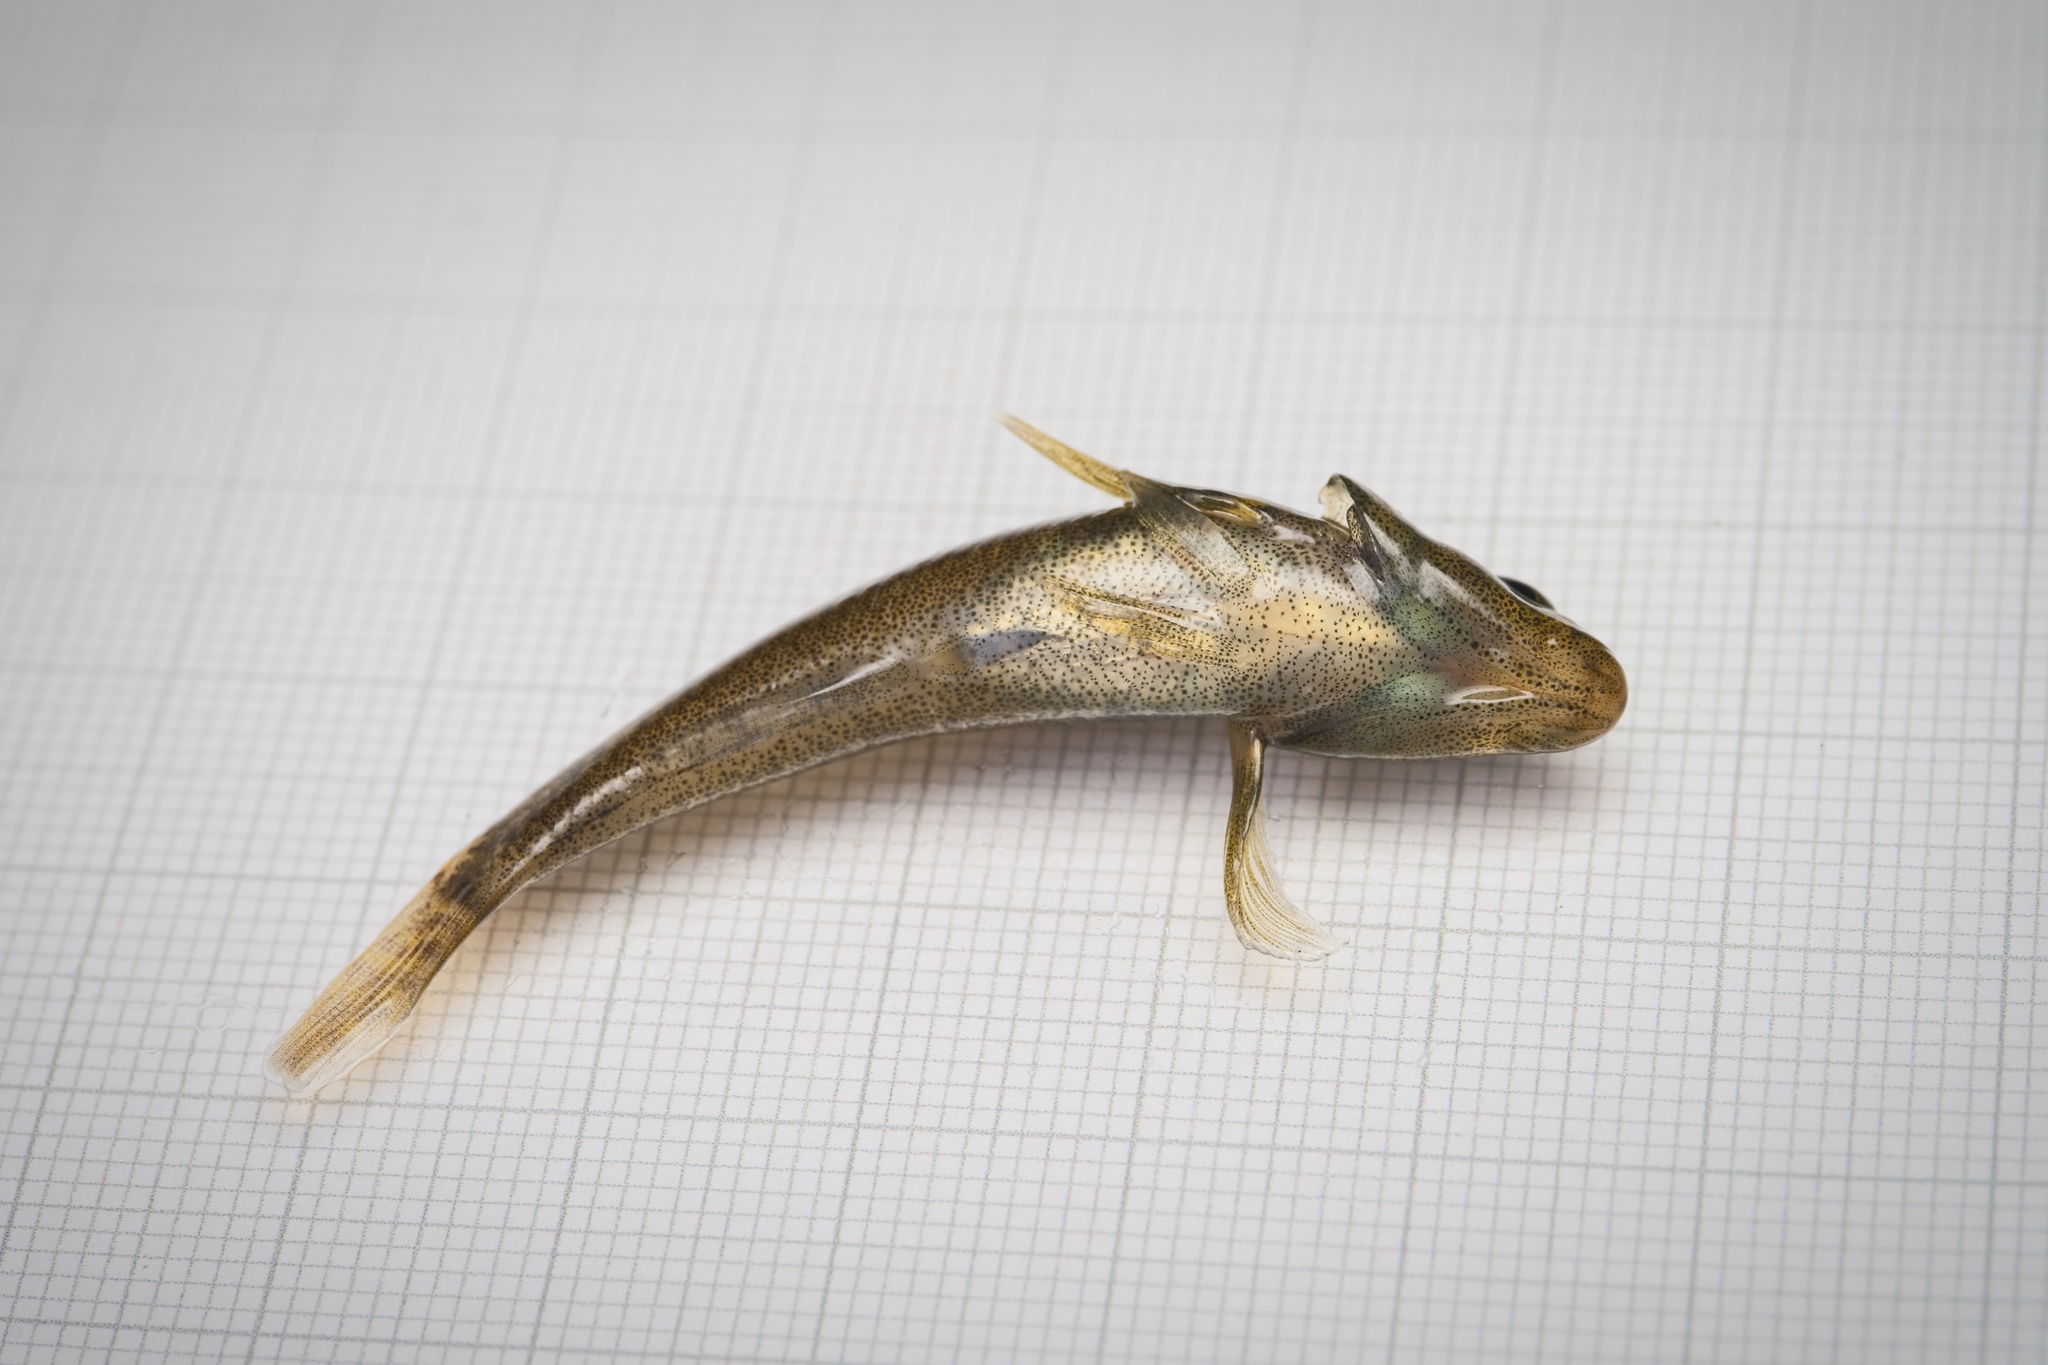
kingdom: Animalia
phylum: Chordata
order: Perciformes
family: Eleotridae
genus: Gobiomorphus
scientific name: Gobiomorphus cotidianus
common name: Common bully
